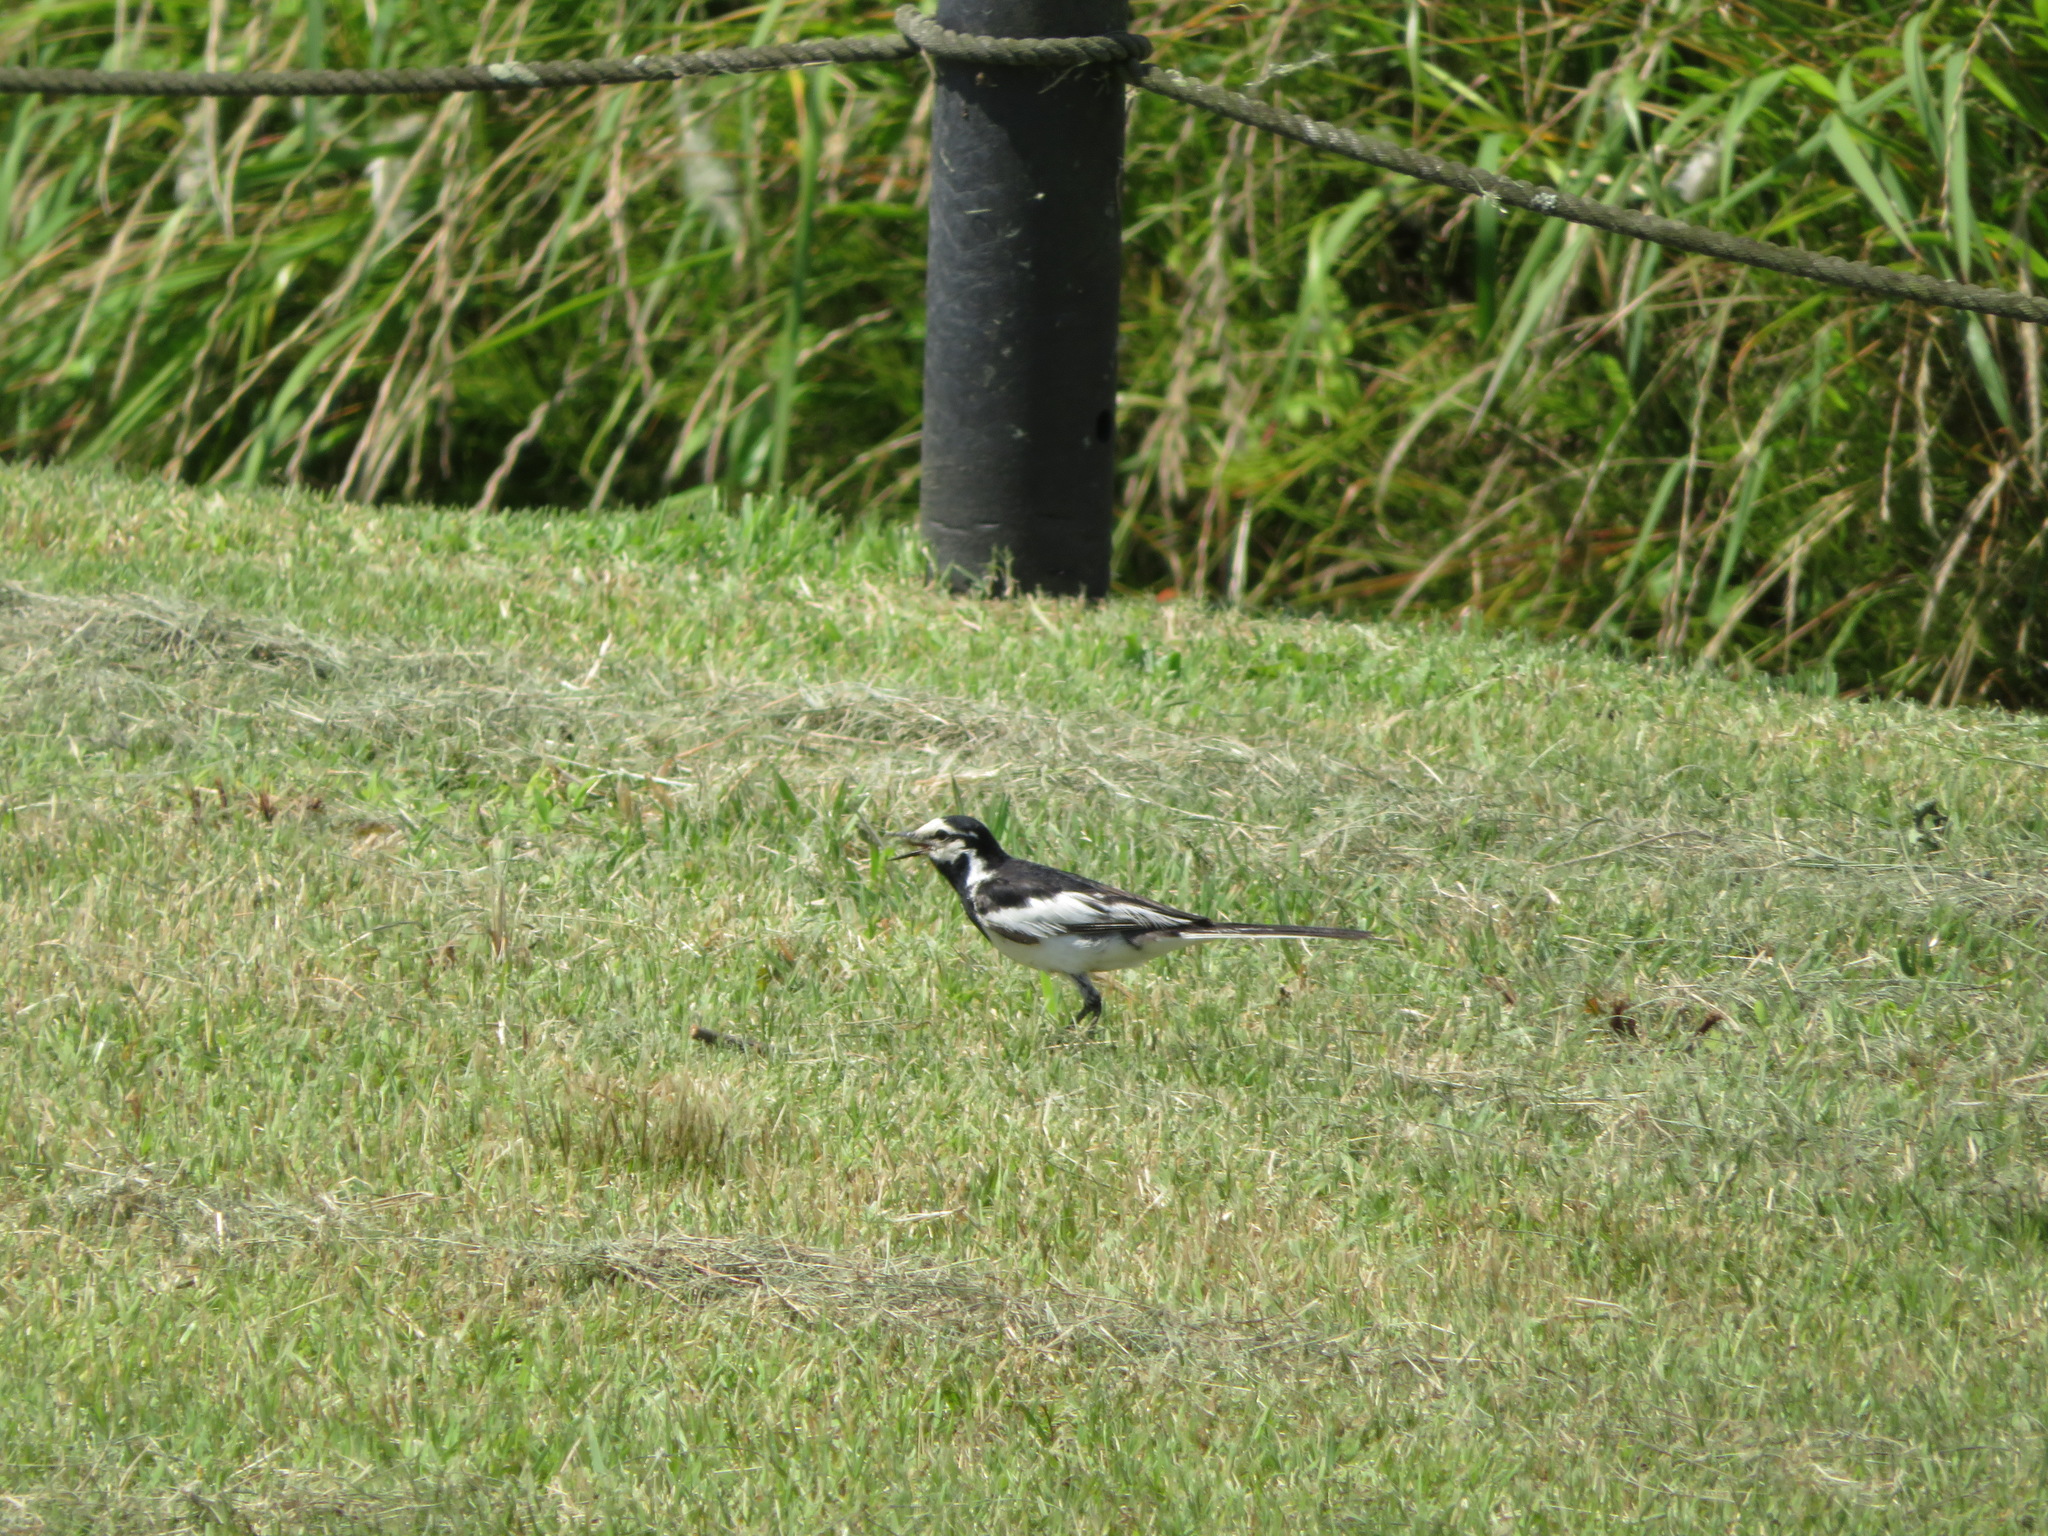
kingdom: Animalia
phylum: Chordata
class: Aves
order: Passeriformes
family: Motacillidae
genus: Motacilla
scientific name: Motacilla alba
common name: White wagtail
